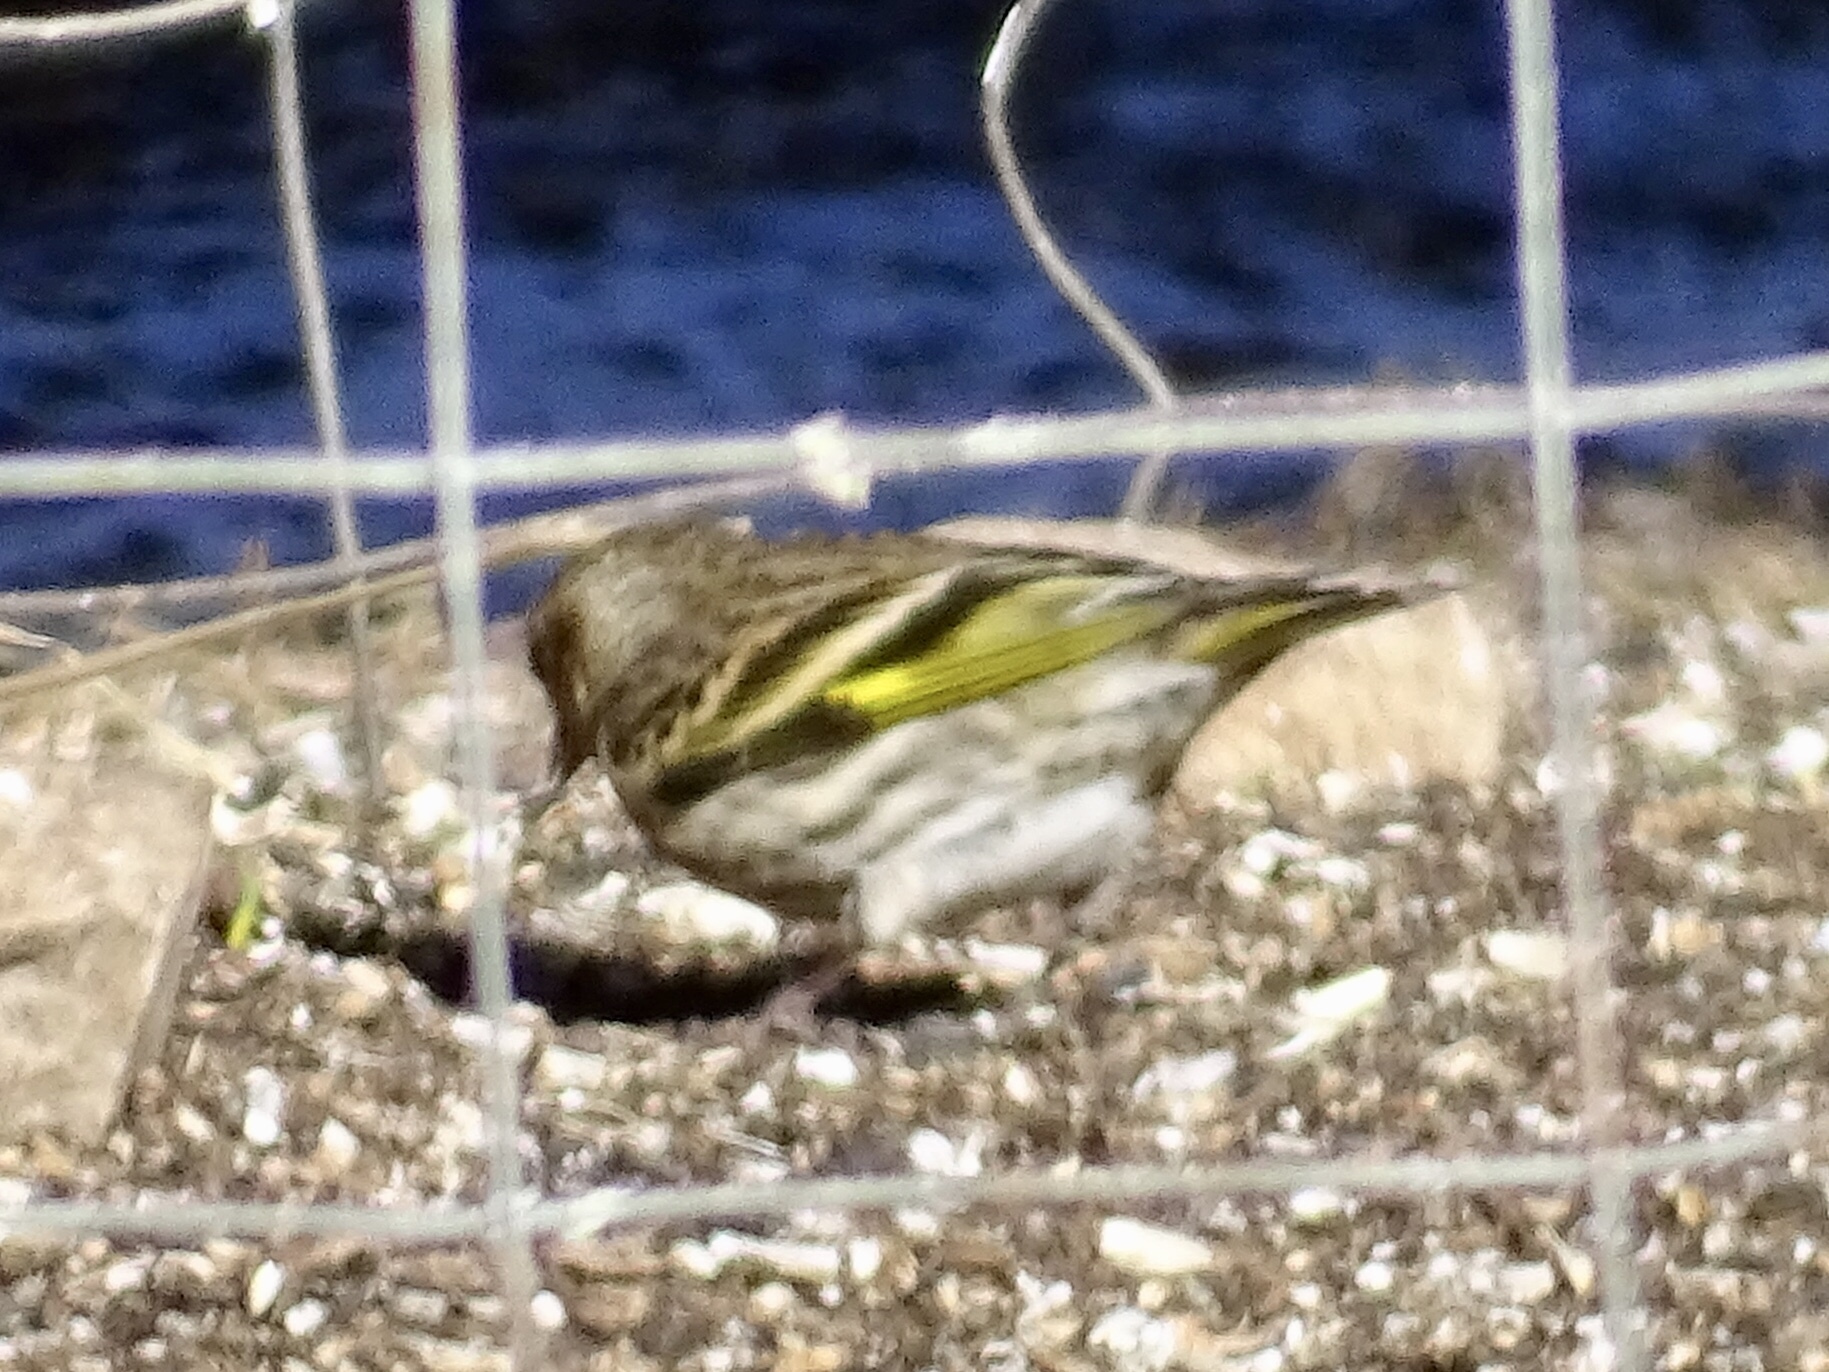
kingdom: Animalia
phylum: Chordata
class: Aves
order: Passeriformes
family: Fringillidae
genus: Spinus
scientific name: Spinus pinus
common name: Pine siskin
